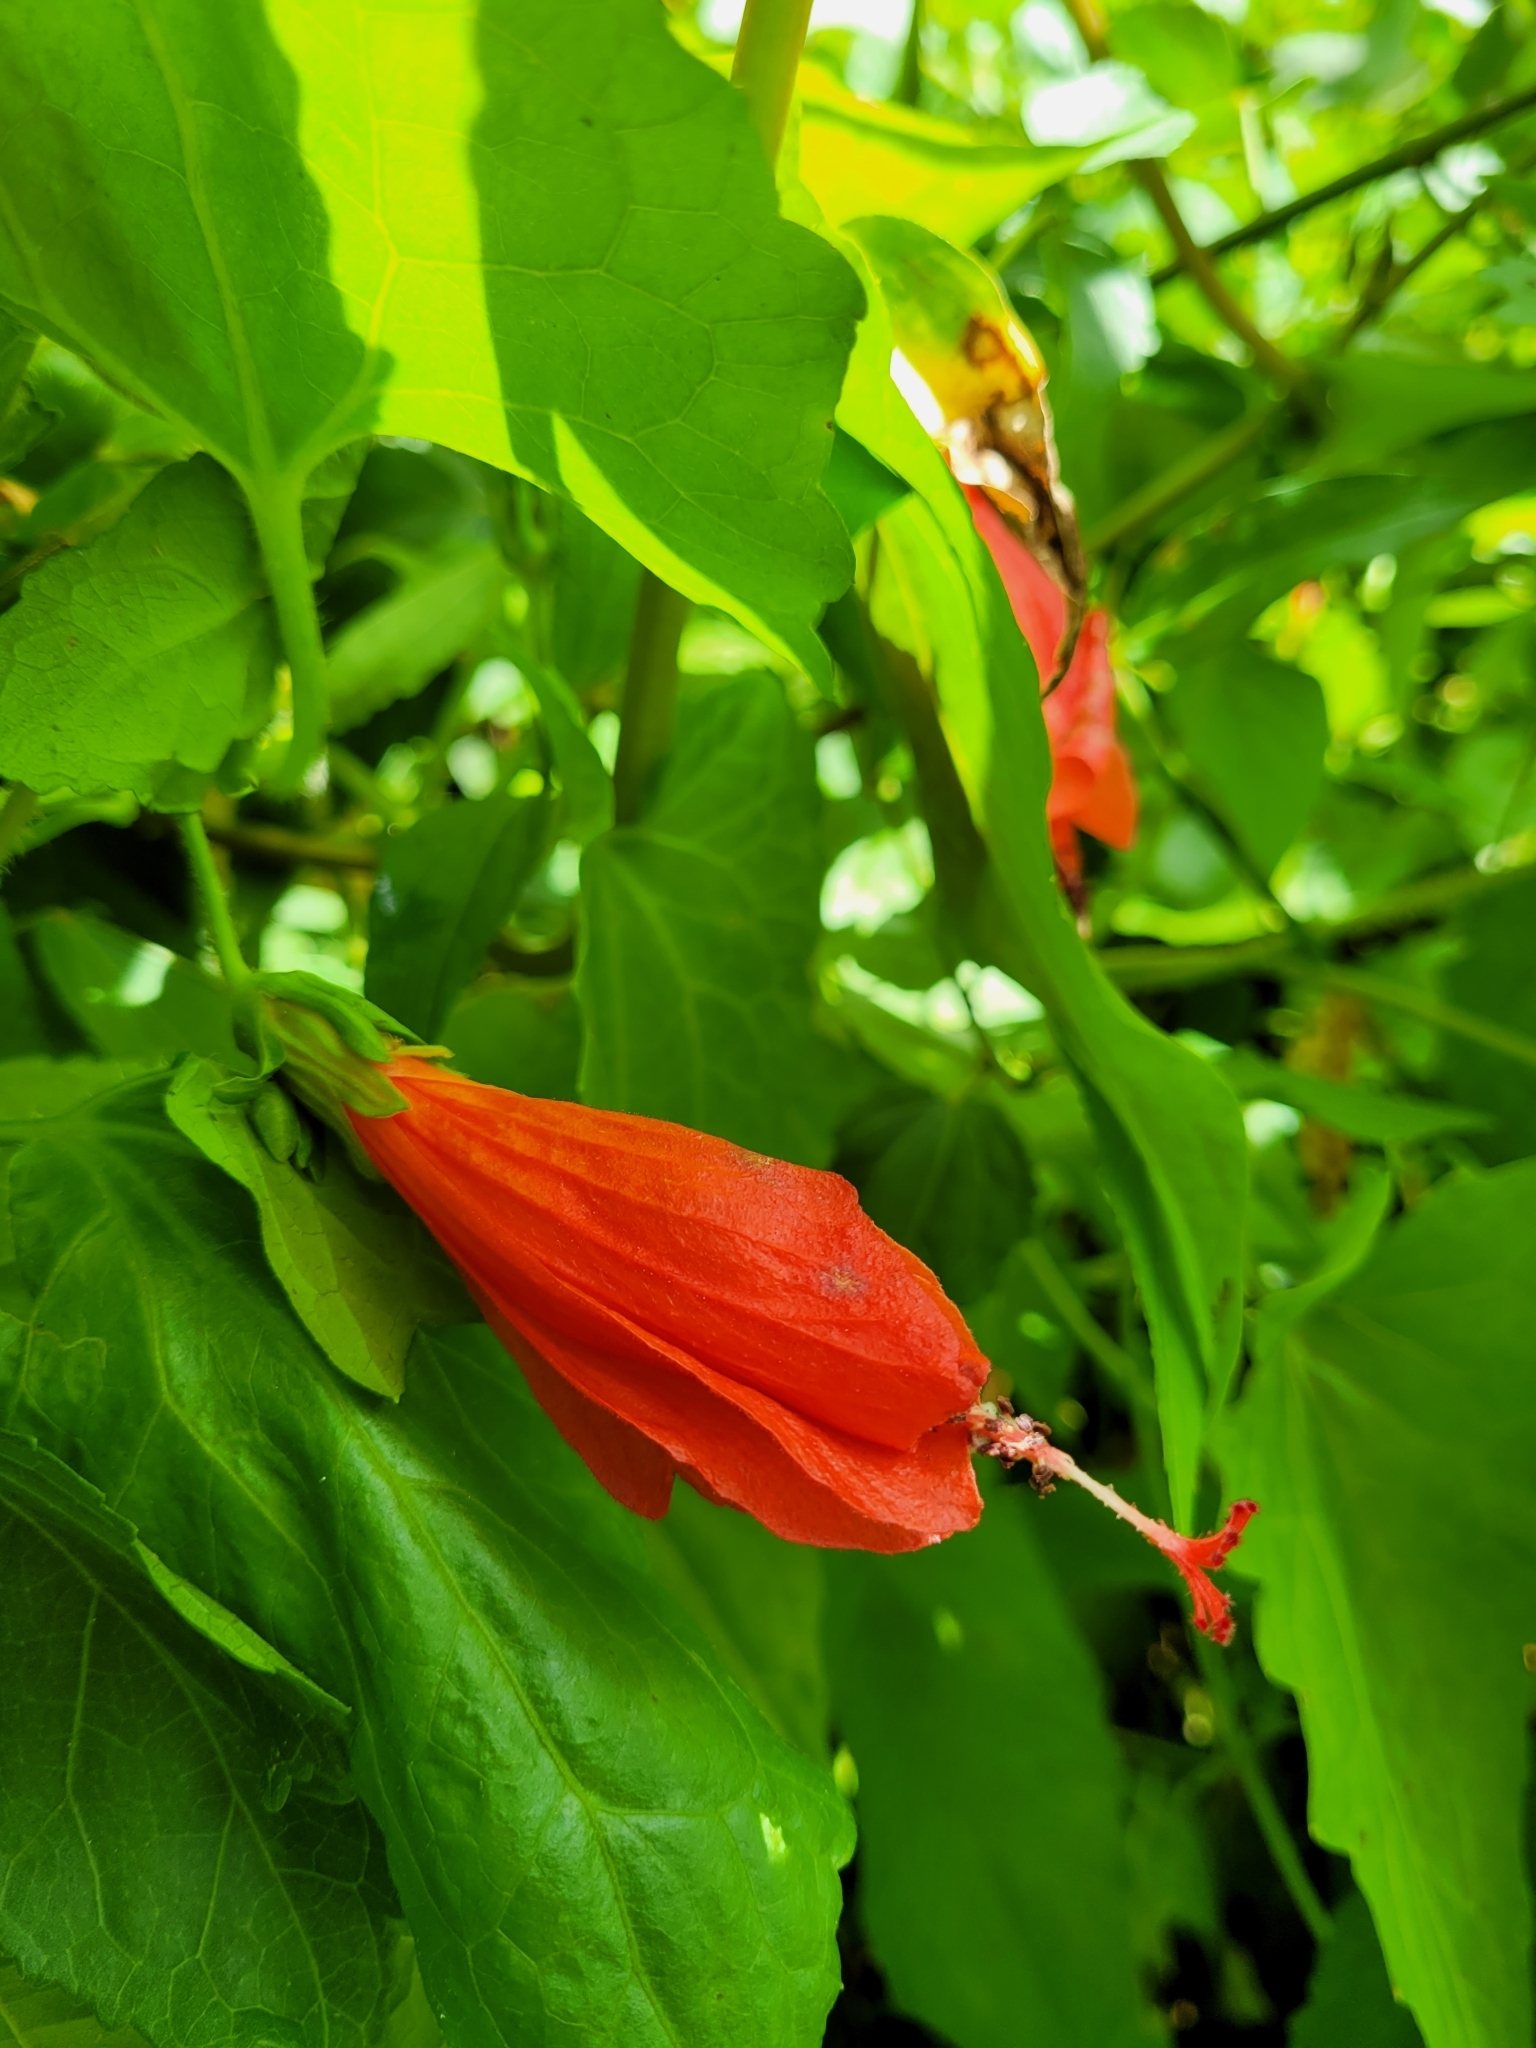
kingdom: Plantae
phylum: Tracheophyta
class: Magnoliopsida
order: Malvales
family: Malvaceae
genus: Malvaviscus
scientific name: Malvaviscus penduliflorus
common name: Mazapan
